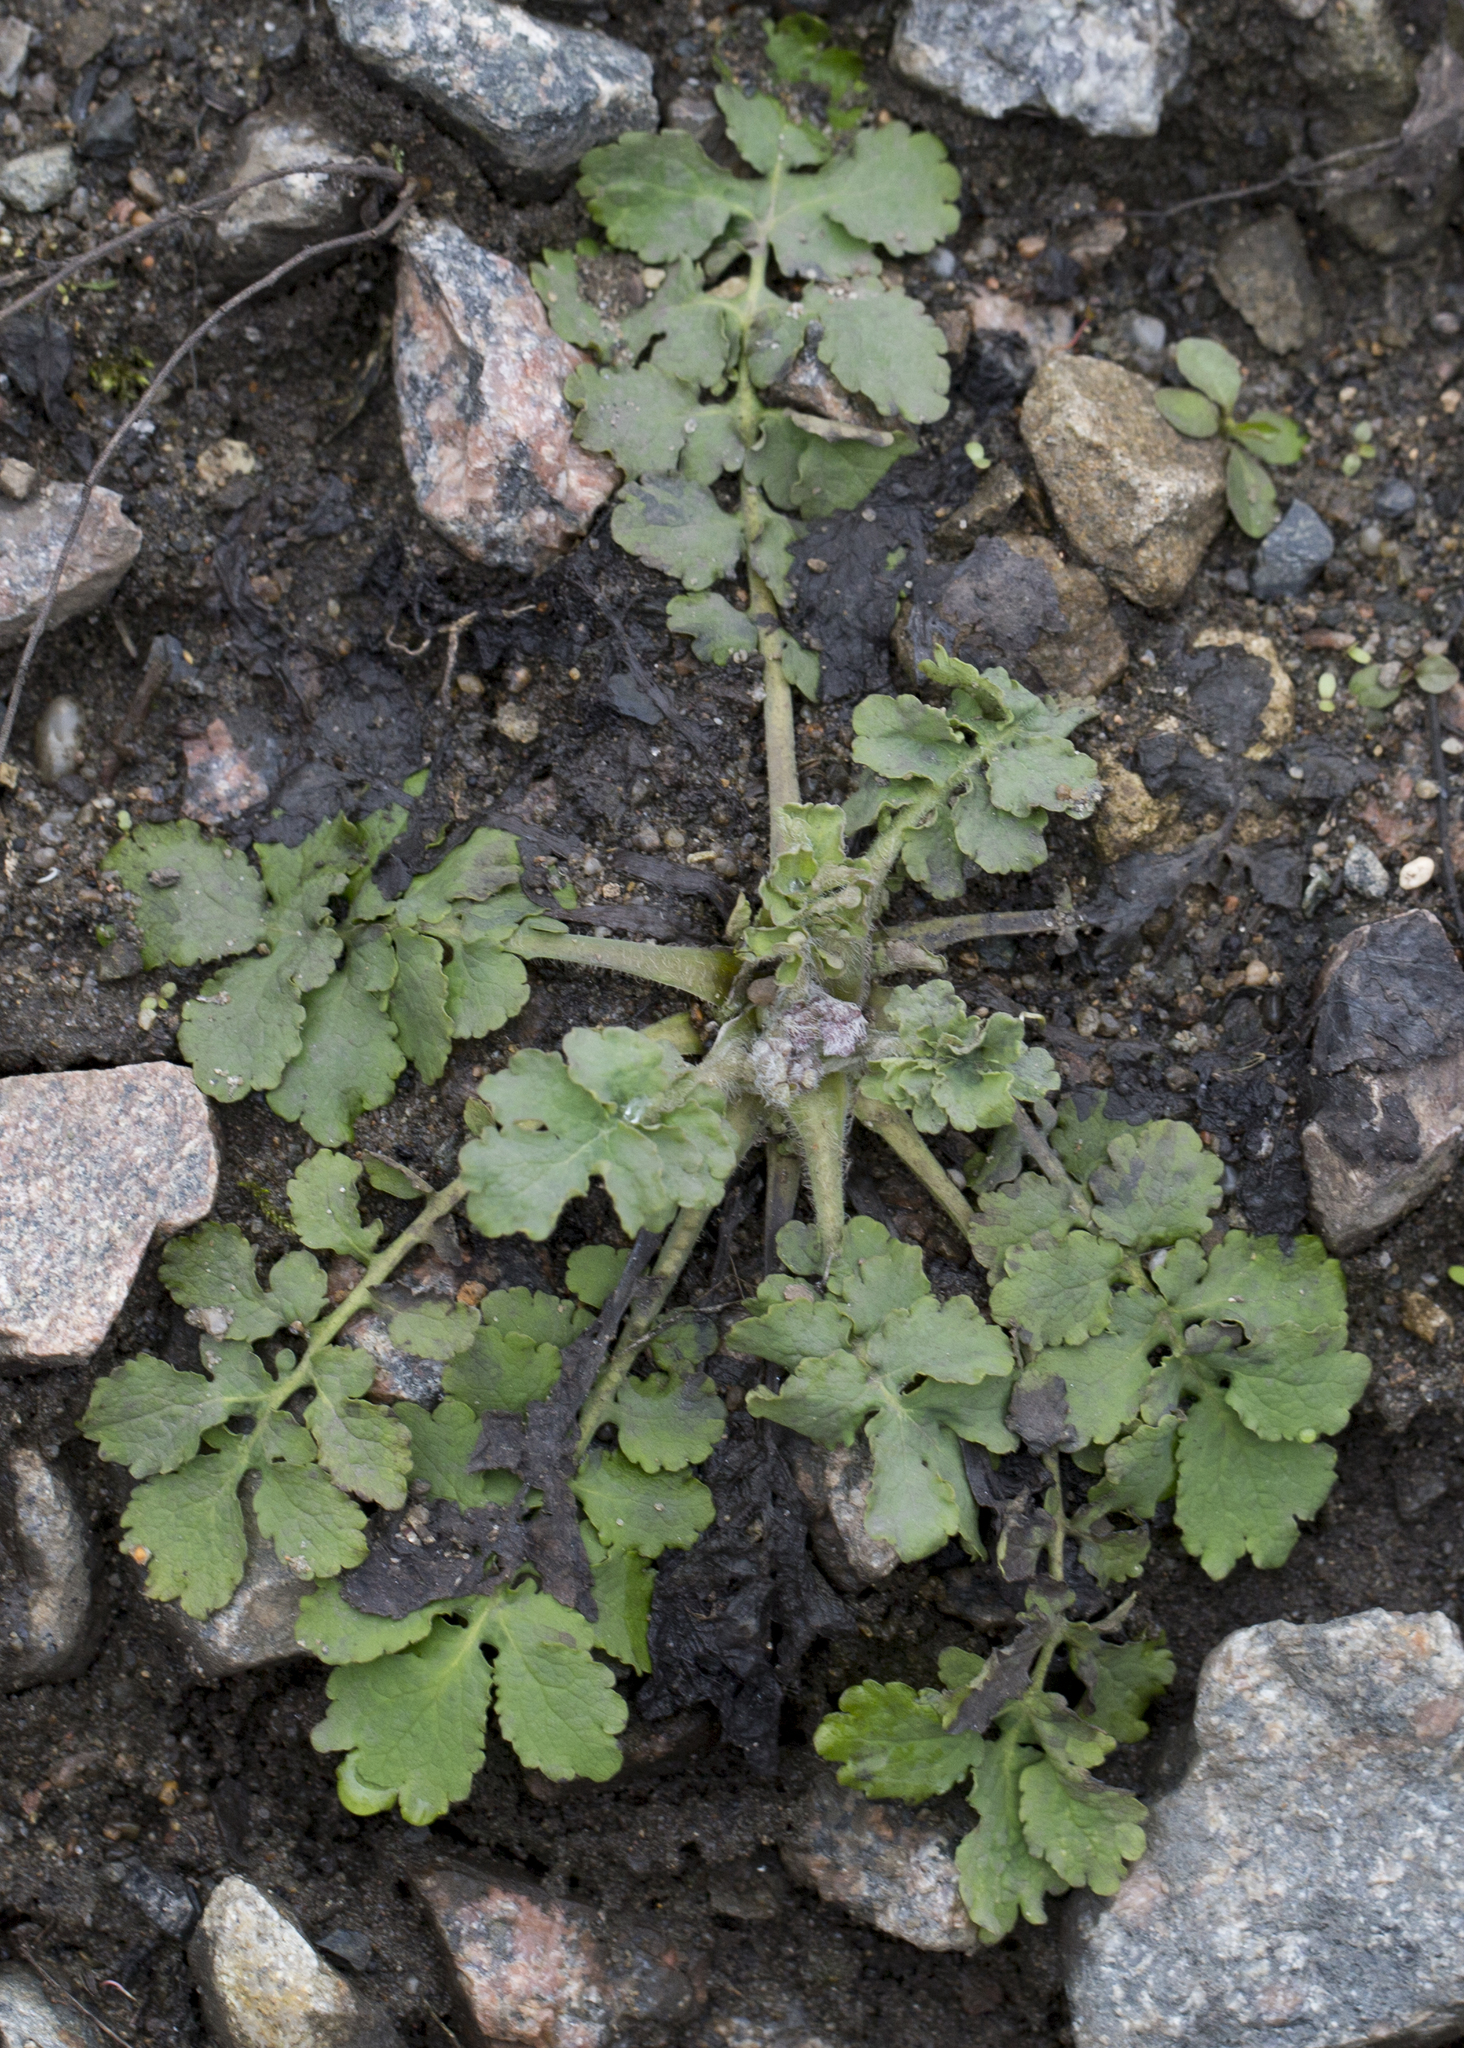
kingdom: Plantae
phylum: Tracheophyta
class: Magnoliopsida
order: Ranunculales
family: Papaveraceae
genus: Chelidonium
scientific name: Chelidonium majus
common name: Greater celandine
